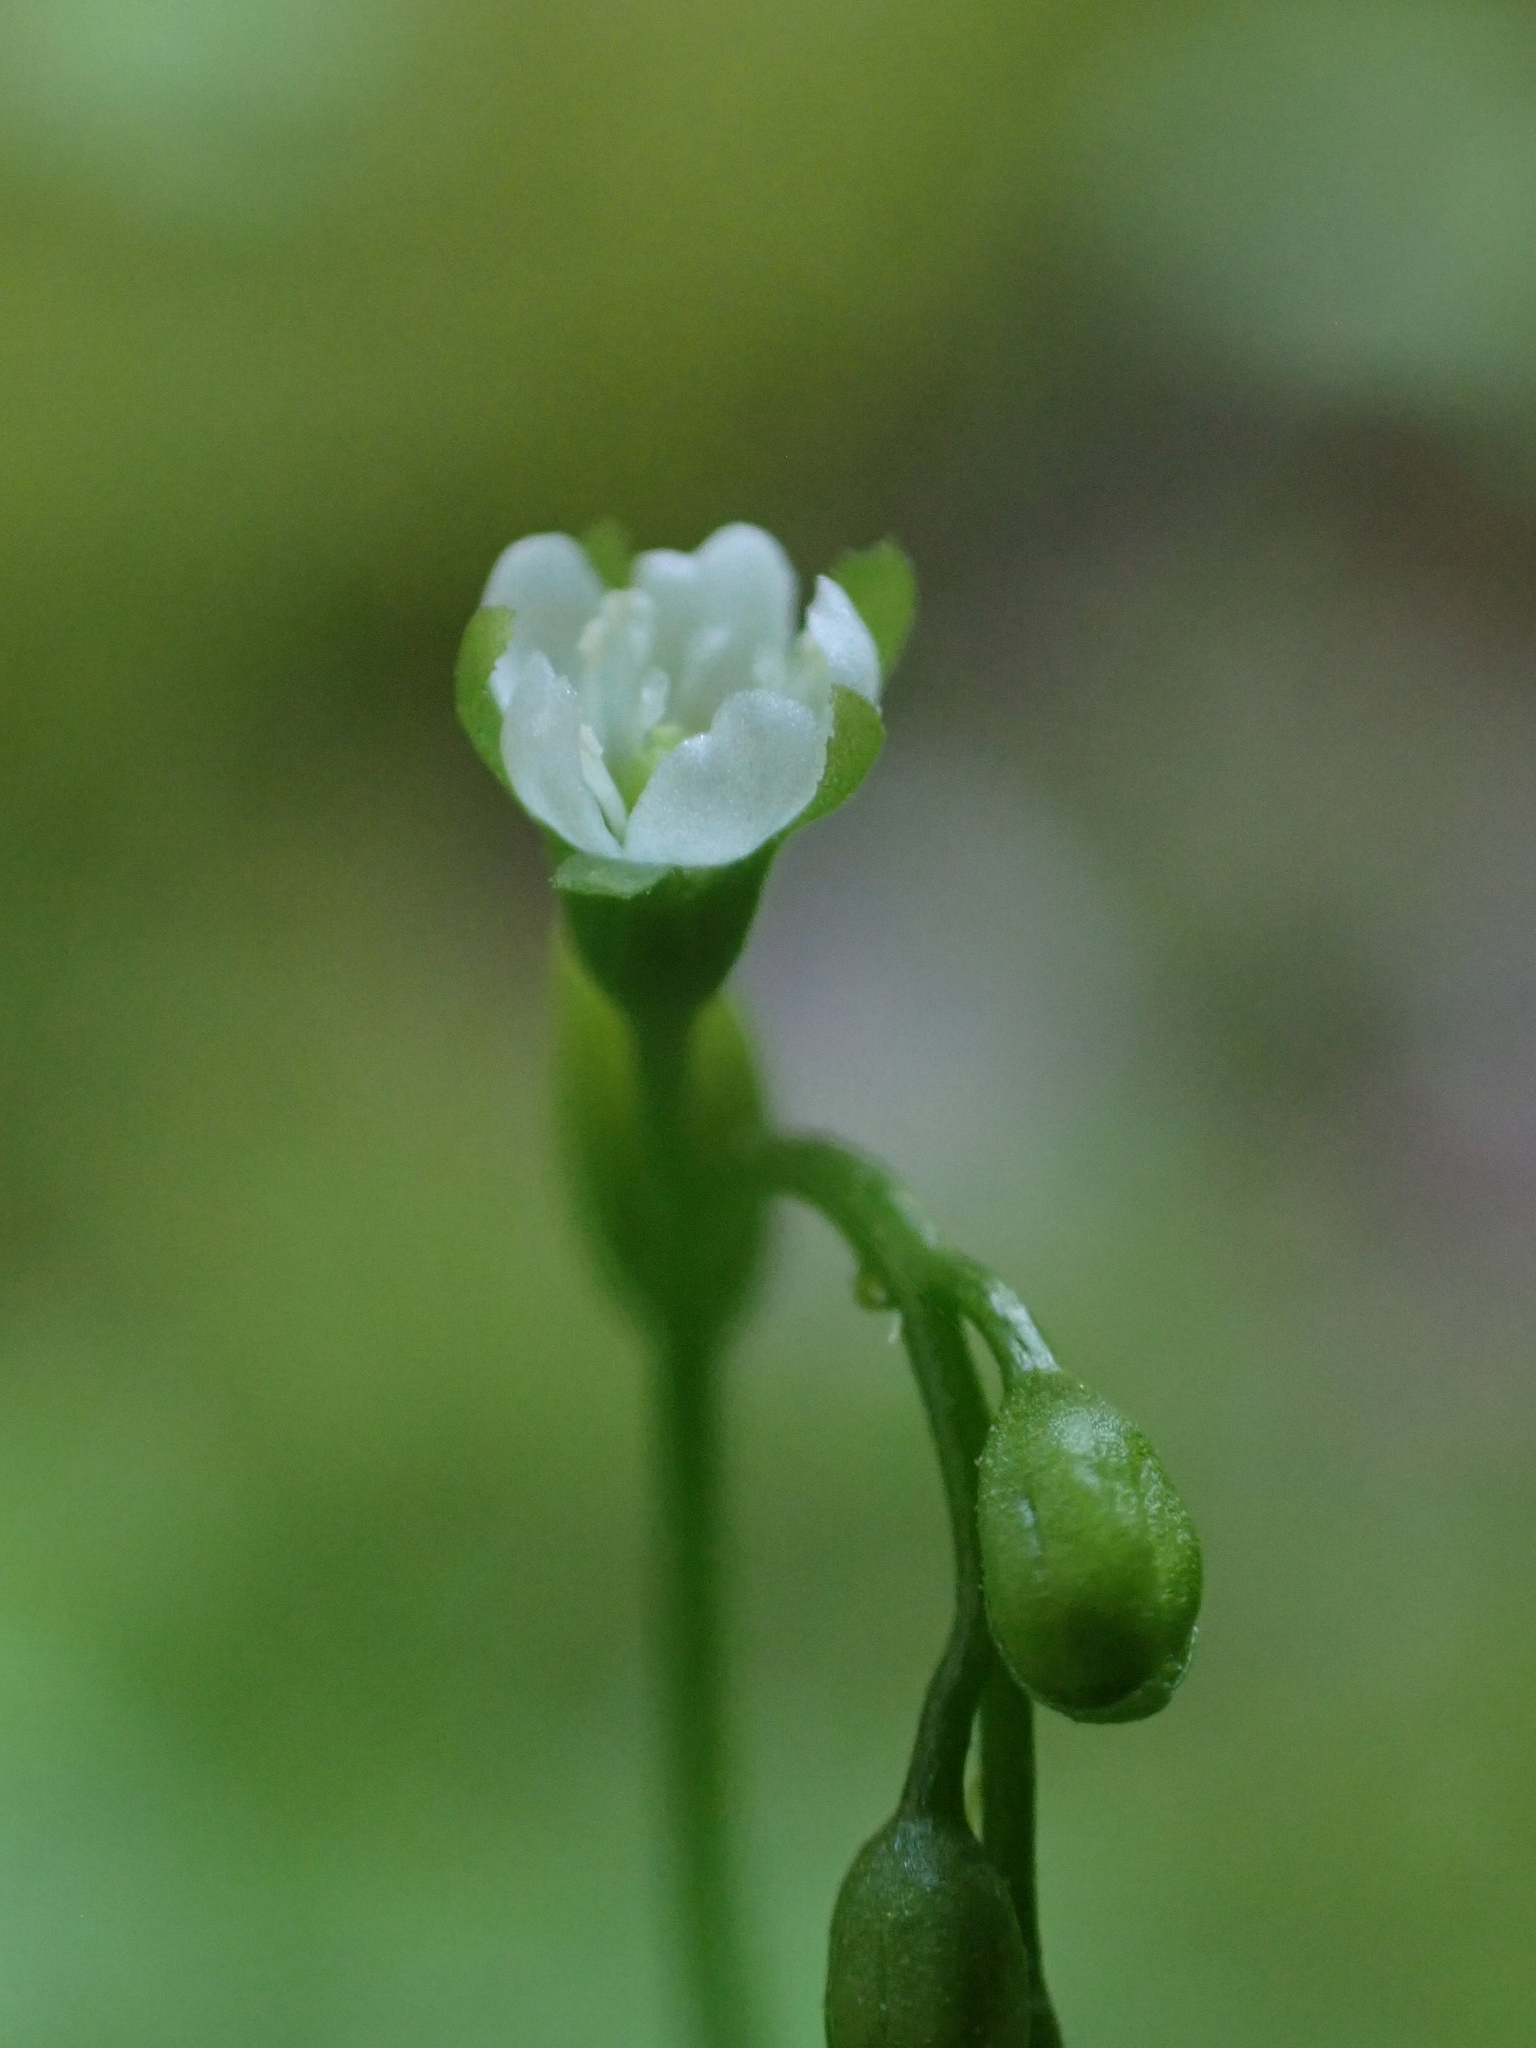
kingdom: Plantae
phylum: Tracheophyta
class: Magnoliopsida
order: Caryophyllales
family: Droseraceae
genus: Drosera
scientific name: Drosera rotundifolia
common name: Round-leaved sundew
